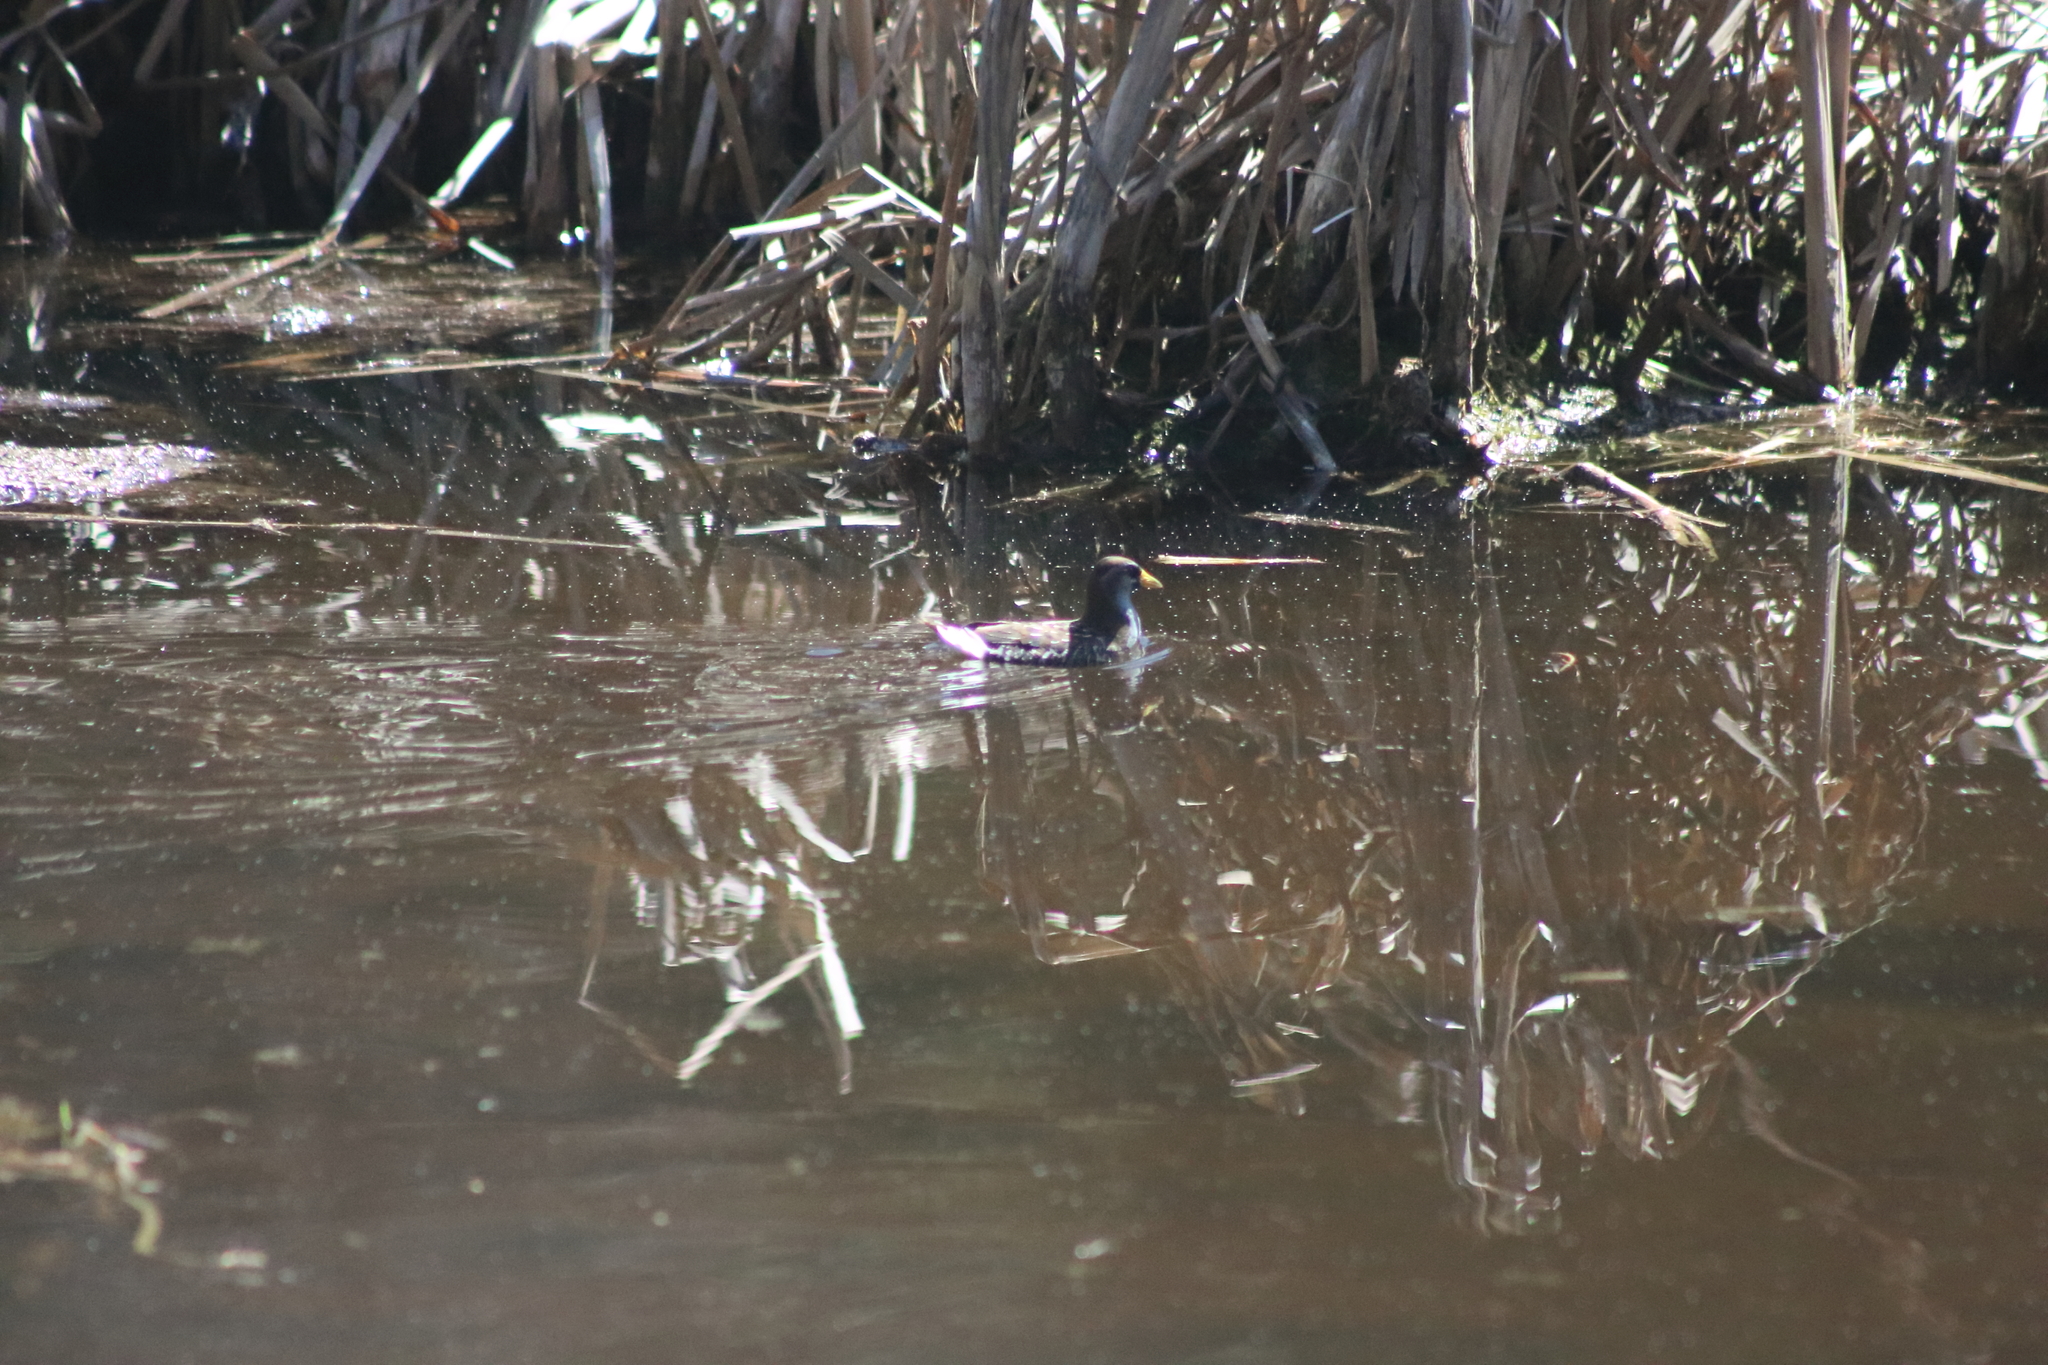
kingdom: Animalia
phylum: Chordata
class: Aves
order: Gruiformes
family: Rallidae
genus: Porzana
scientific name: Porzana carolina
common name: Sora
